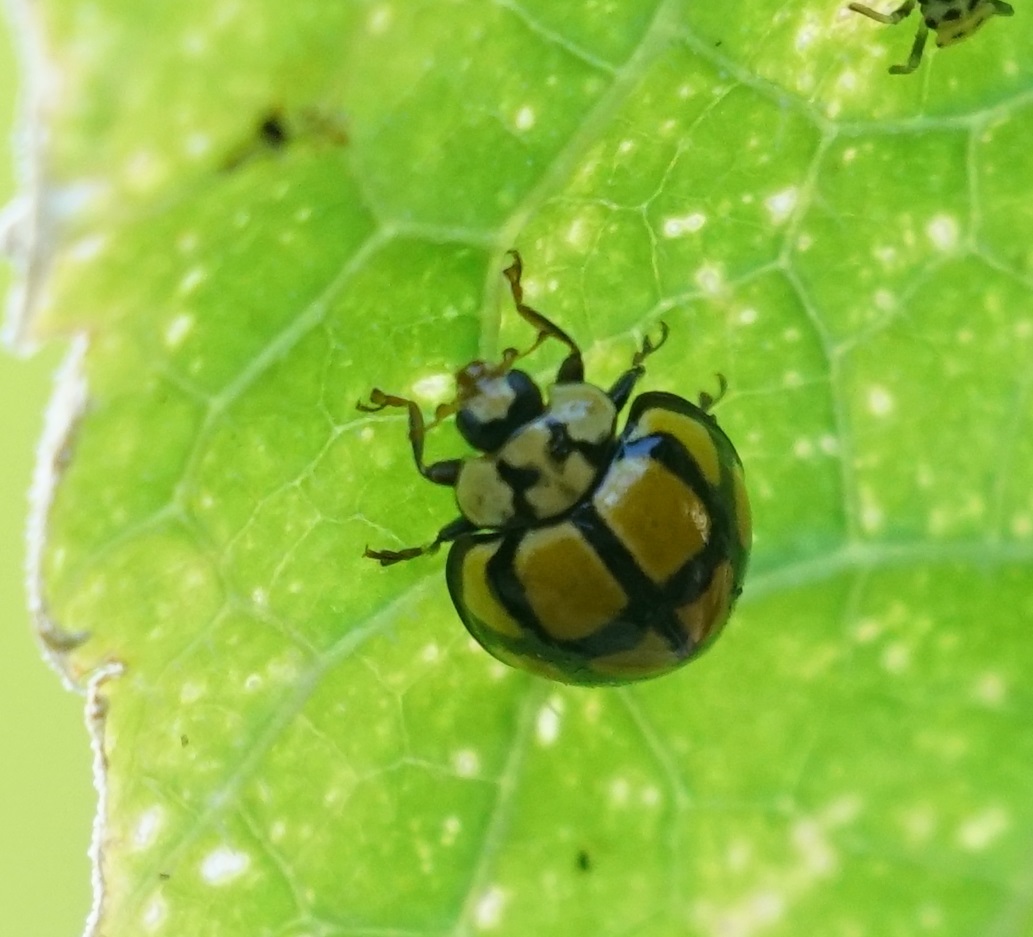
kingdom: Animalia
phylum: Arthropoda
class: Insecta
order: Coleoptera
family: Coccinellidae
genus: Harmonia
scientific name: Harmonia
